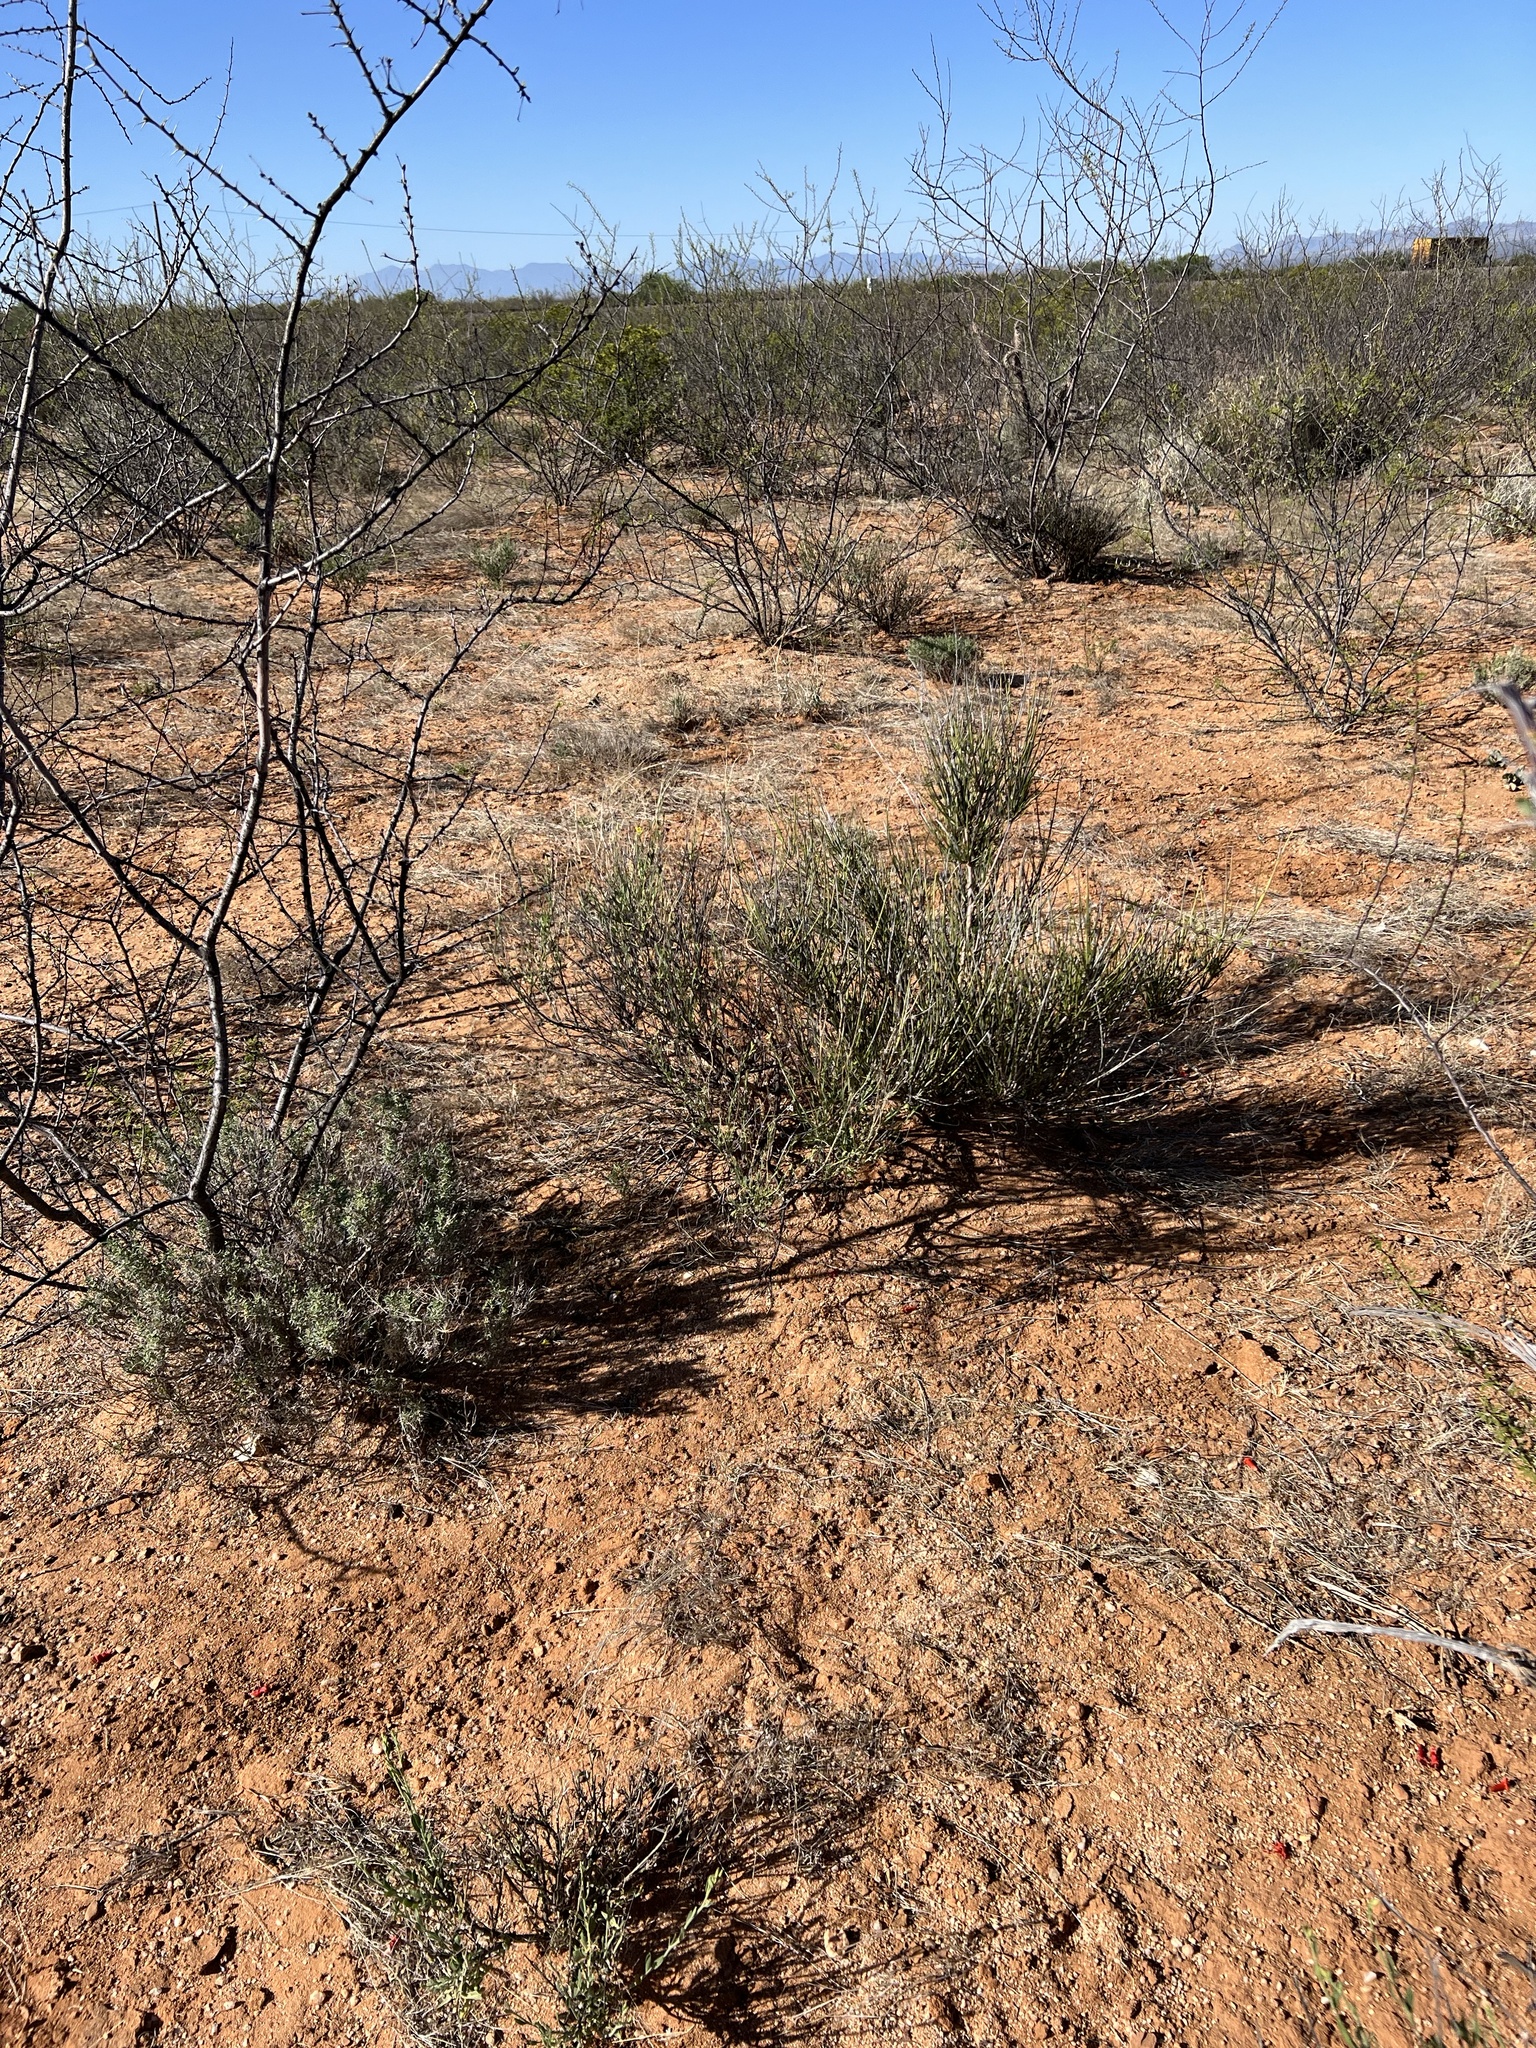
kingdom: Plantae
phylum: Tracheophyta
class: Gnetopsida
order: Ephedrales
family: Ephedraceae
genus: Ephedra
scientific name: Ephedra trifurca
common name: Mexican-tea
